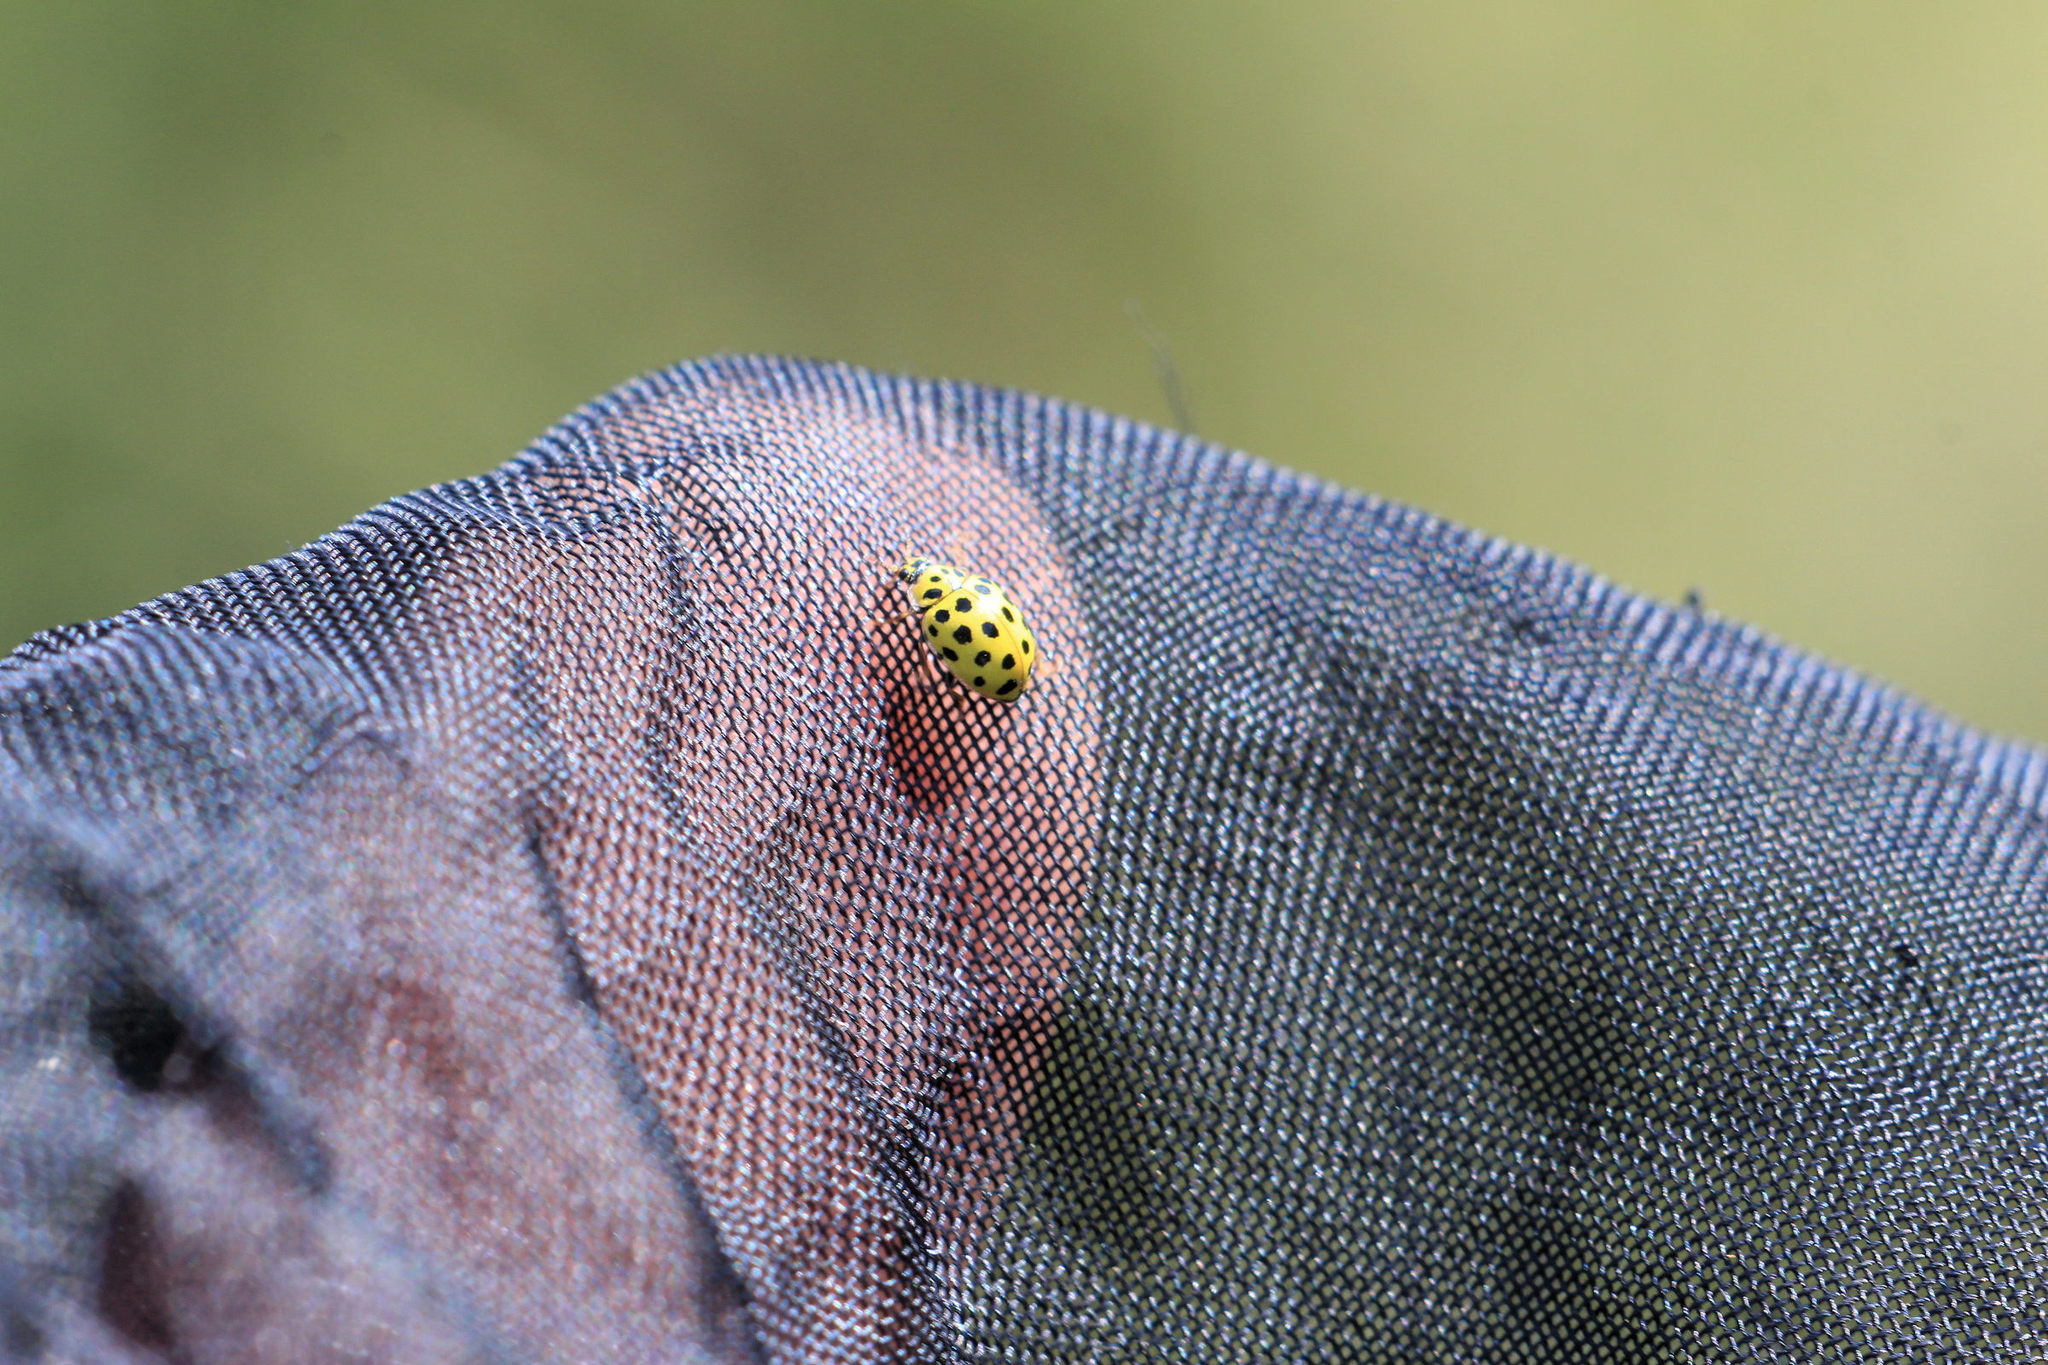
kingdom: Animalia
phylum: Arthropoda
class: Insecta
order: Coleoptera
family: Coccinellidae
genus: Psyllobora
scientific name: Psyllobora vigintiduopunctata
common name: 22-spot ladybird
